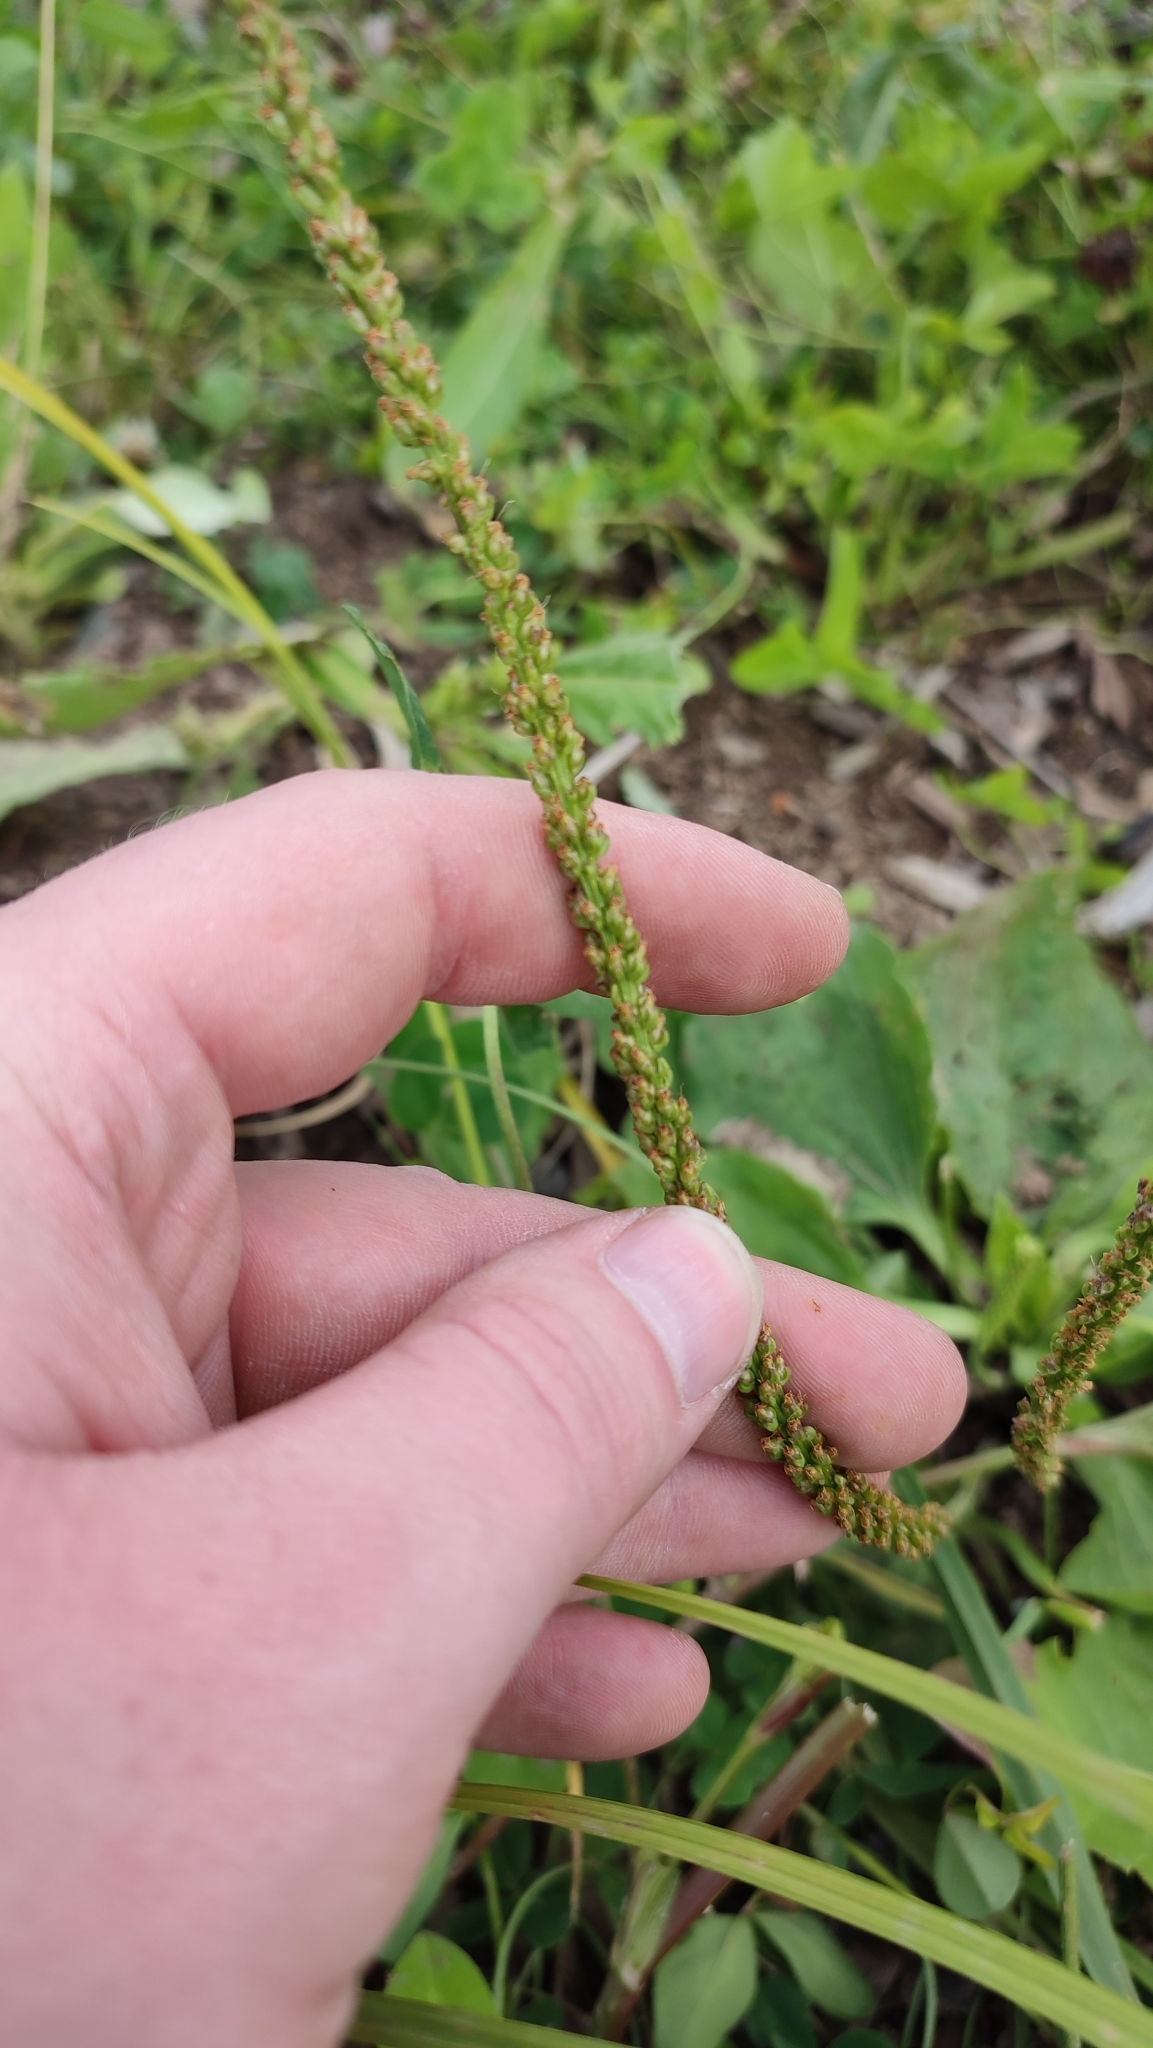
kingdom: Plantae
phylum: Tracheophyta
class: Magnoliopsida
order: Lamiales
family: Plantaginaceae
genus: Plantago
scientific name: Plantago major
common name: Common plantain
